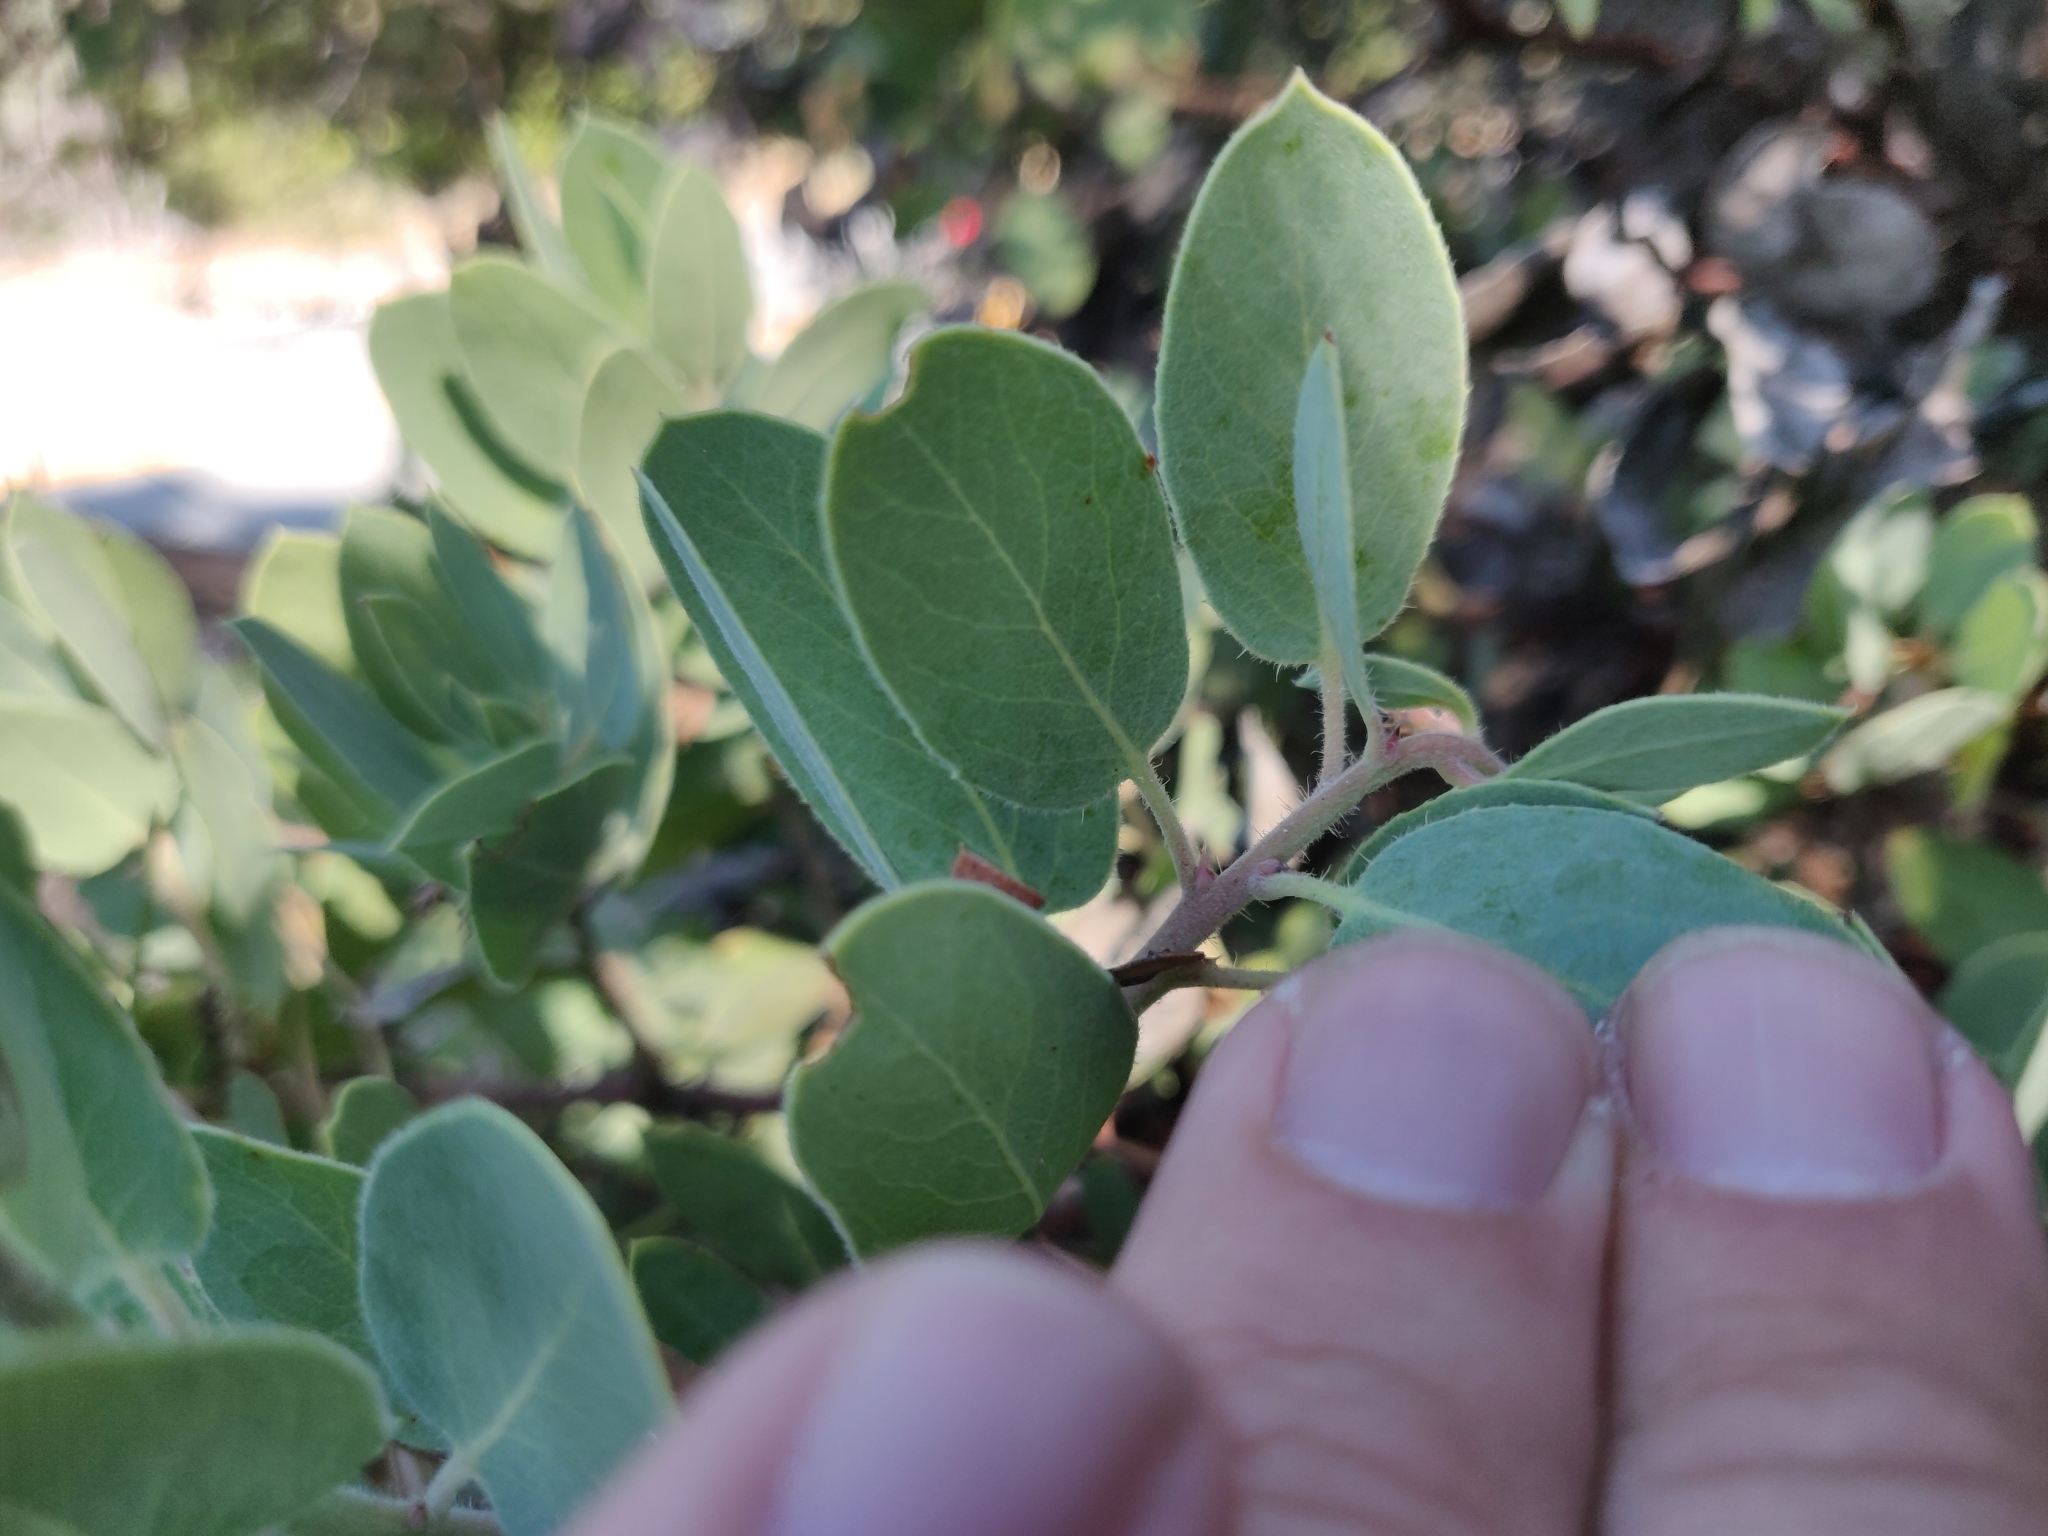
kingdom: Plantae
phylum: Tracheophyta
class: Magnoliopsida
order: Ericales
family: Ericaceae
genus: Arctostaphylos
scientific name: Arctostaphylos crustacea
